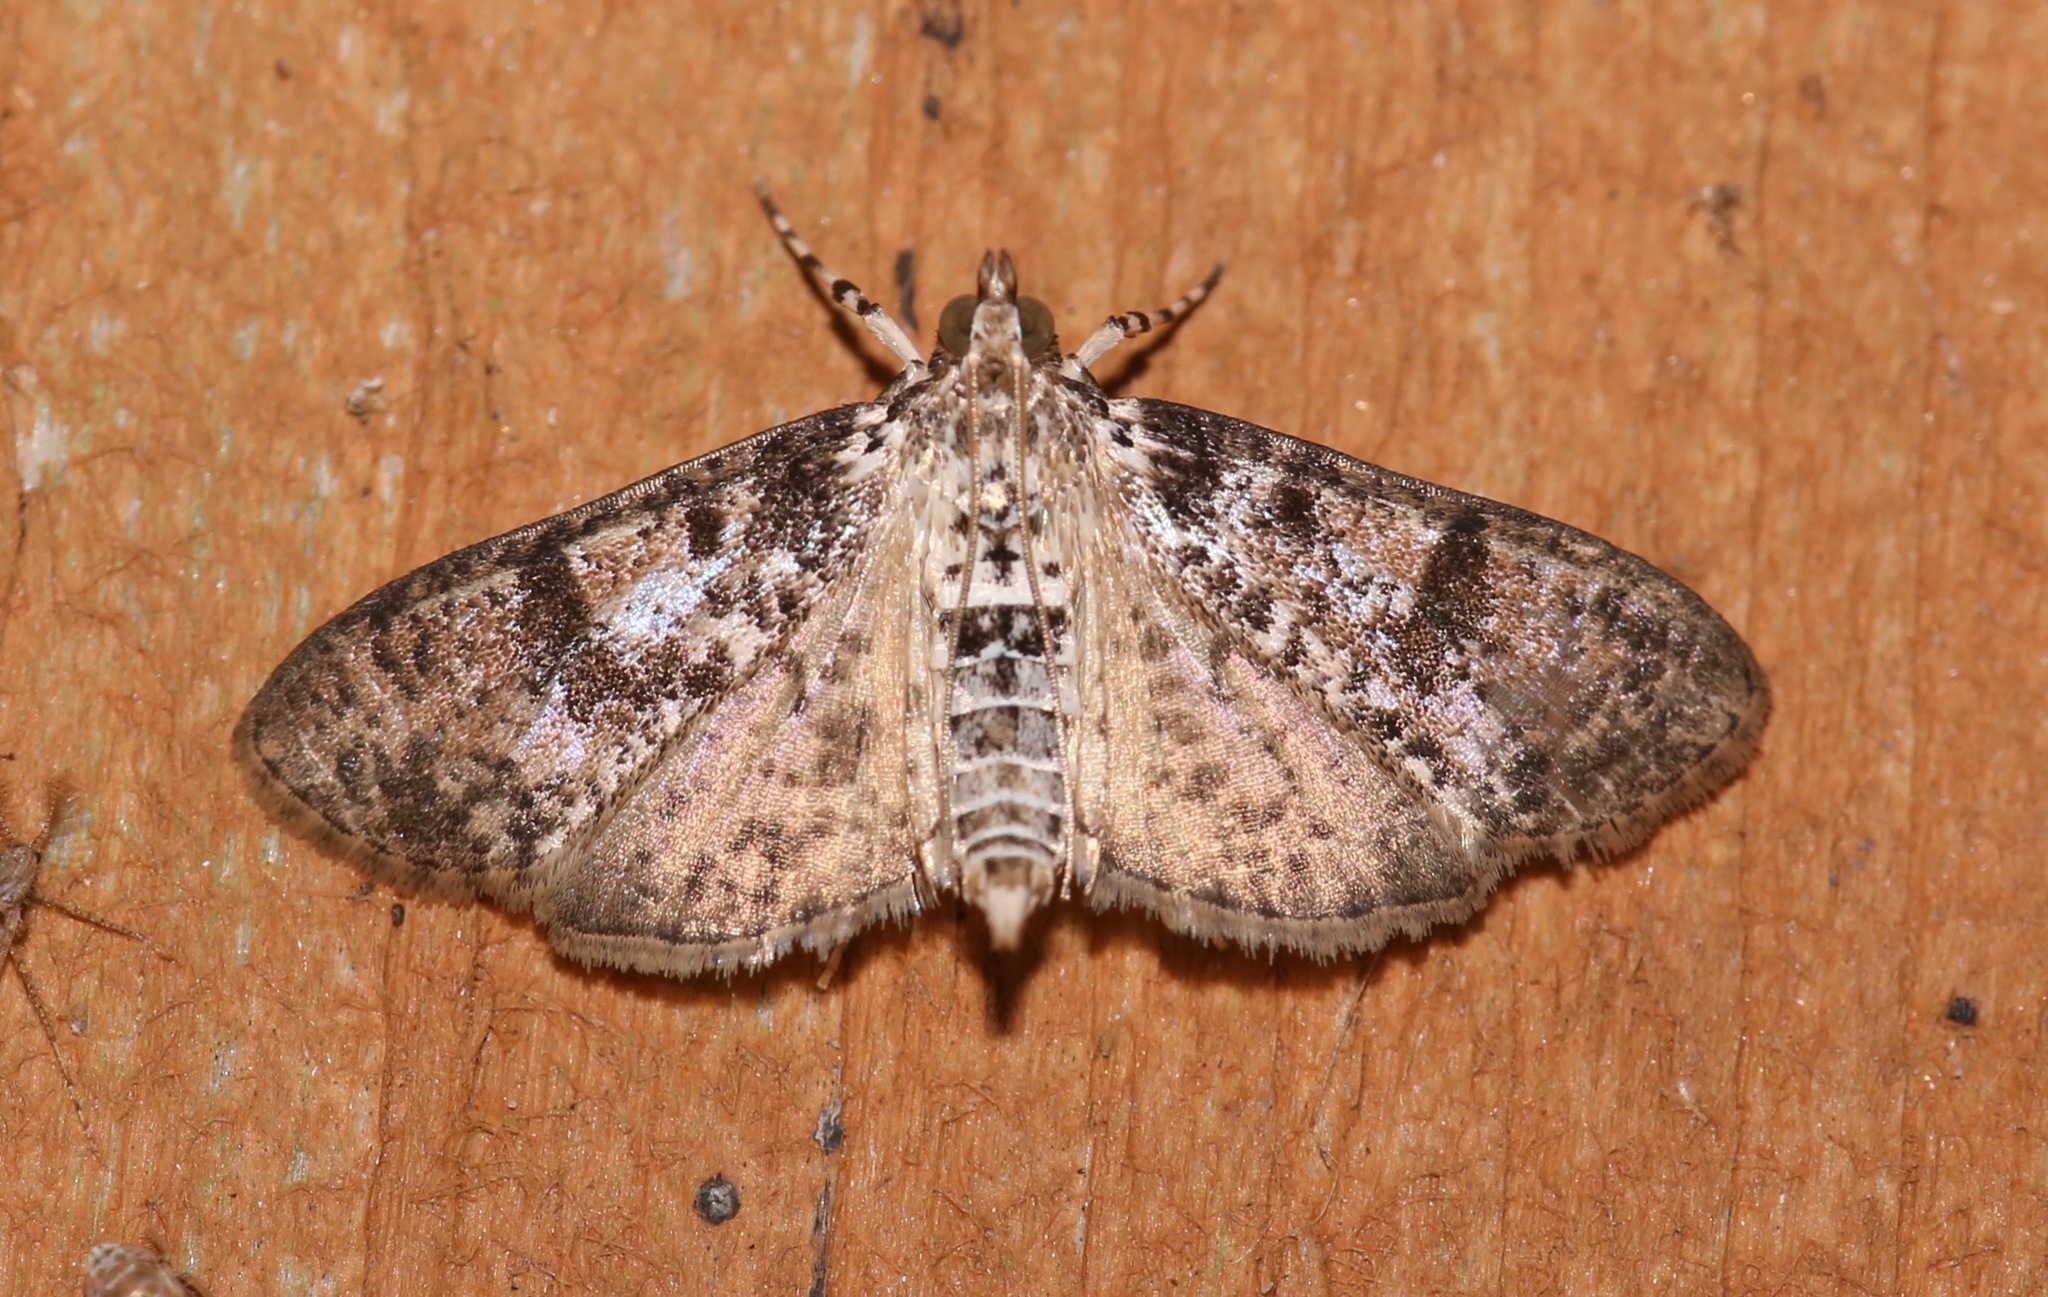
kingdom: Animalia
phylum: Arthropoda
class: Insecta
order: Lepidoptera
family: Crambidae
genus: Palpita
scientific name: Palpita magniferalis
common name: Splendid palpita moth
